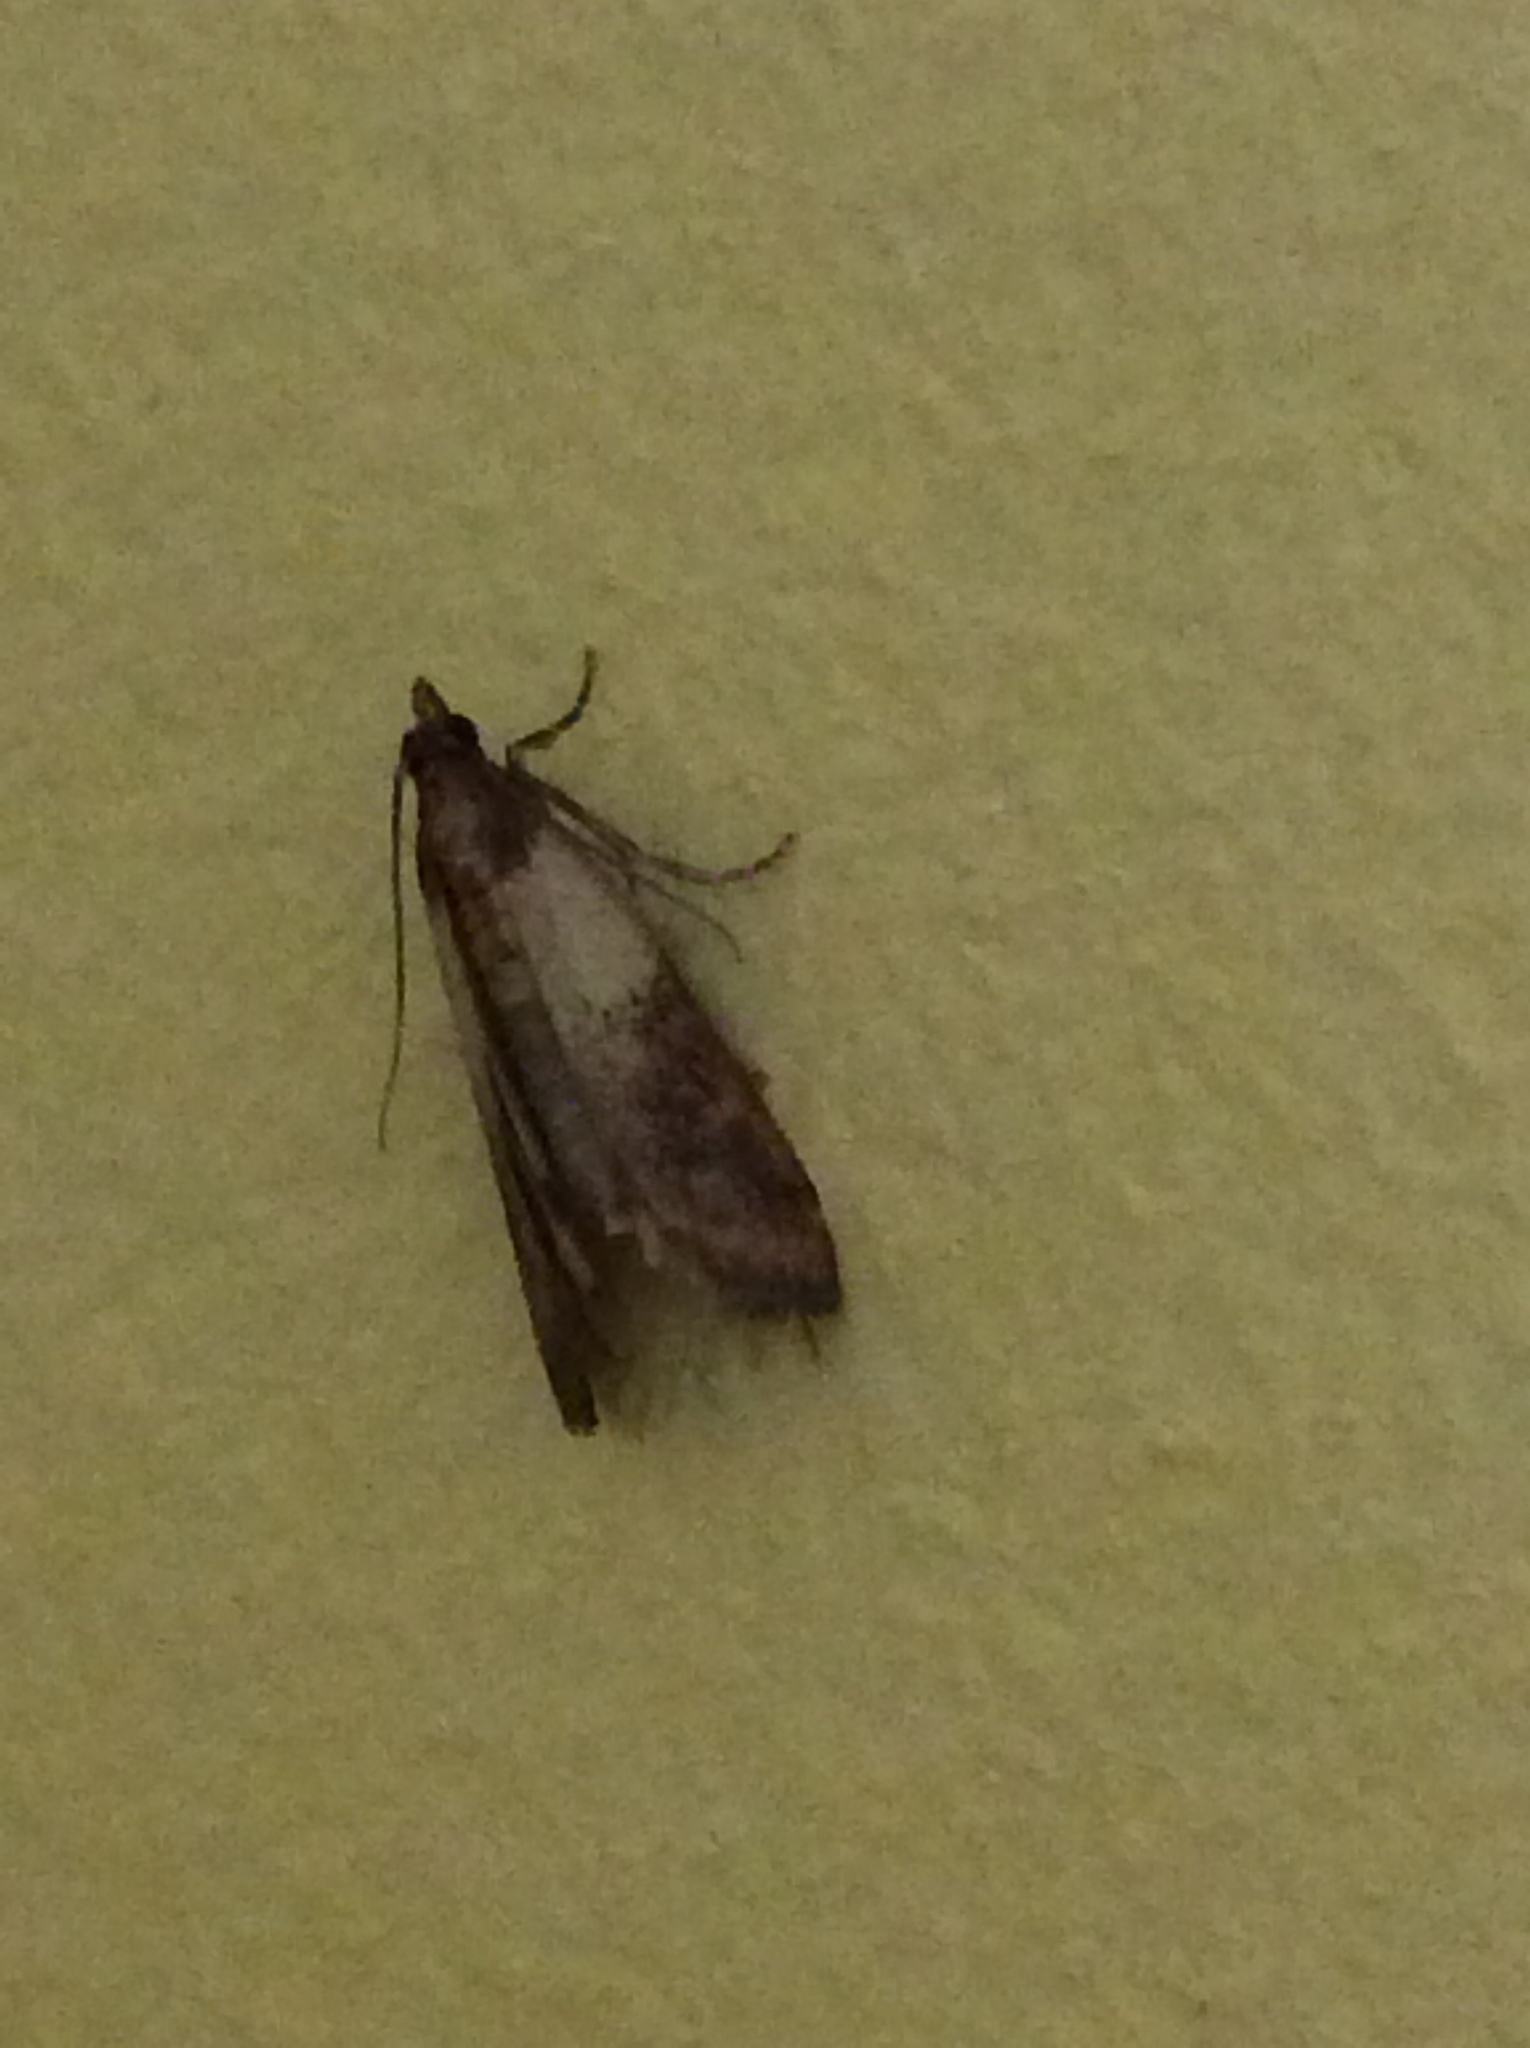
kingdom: Animalia
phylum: Arthropoda
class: Insecta
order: Lepidoptera
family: Pyralidae
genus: Plodia
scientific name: Plodia interpunctella
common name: Indian meal moth
